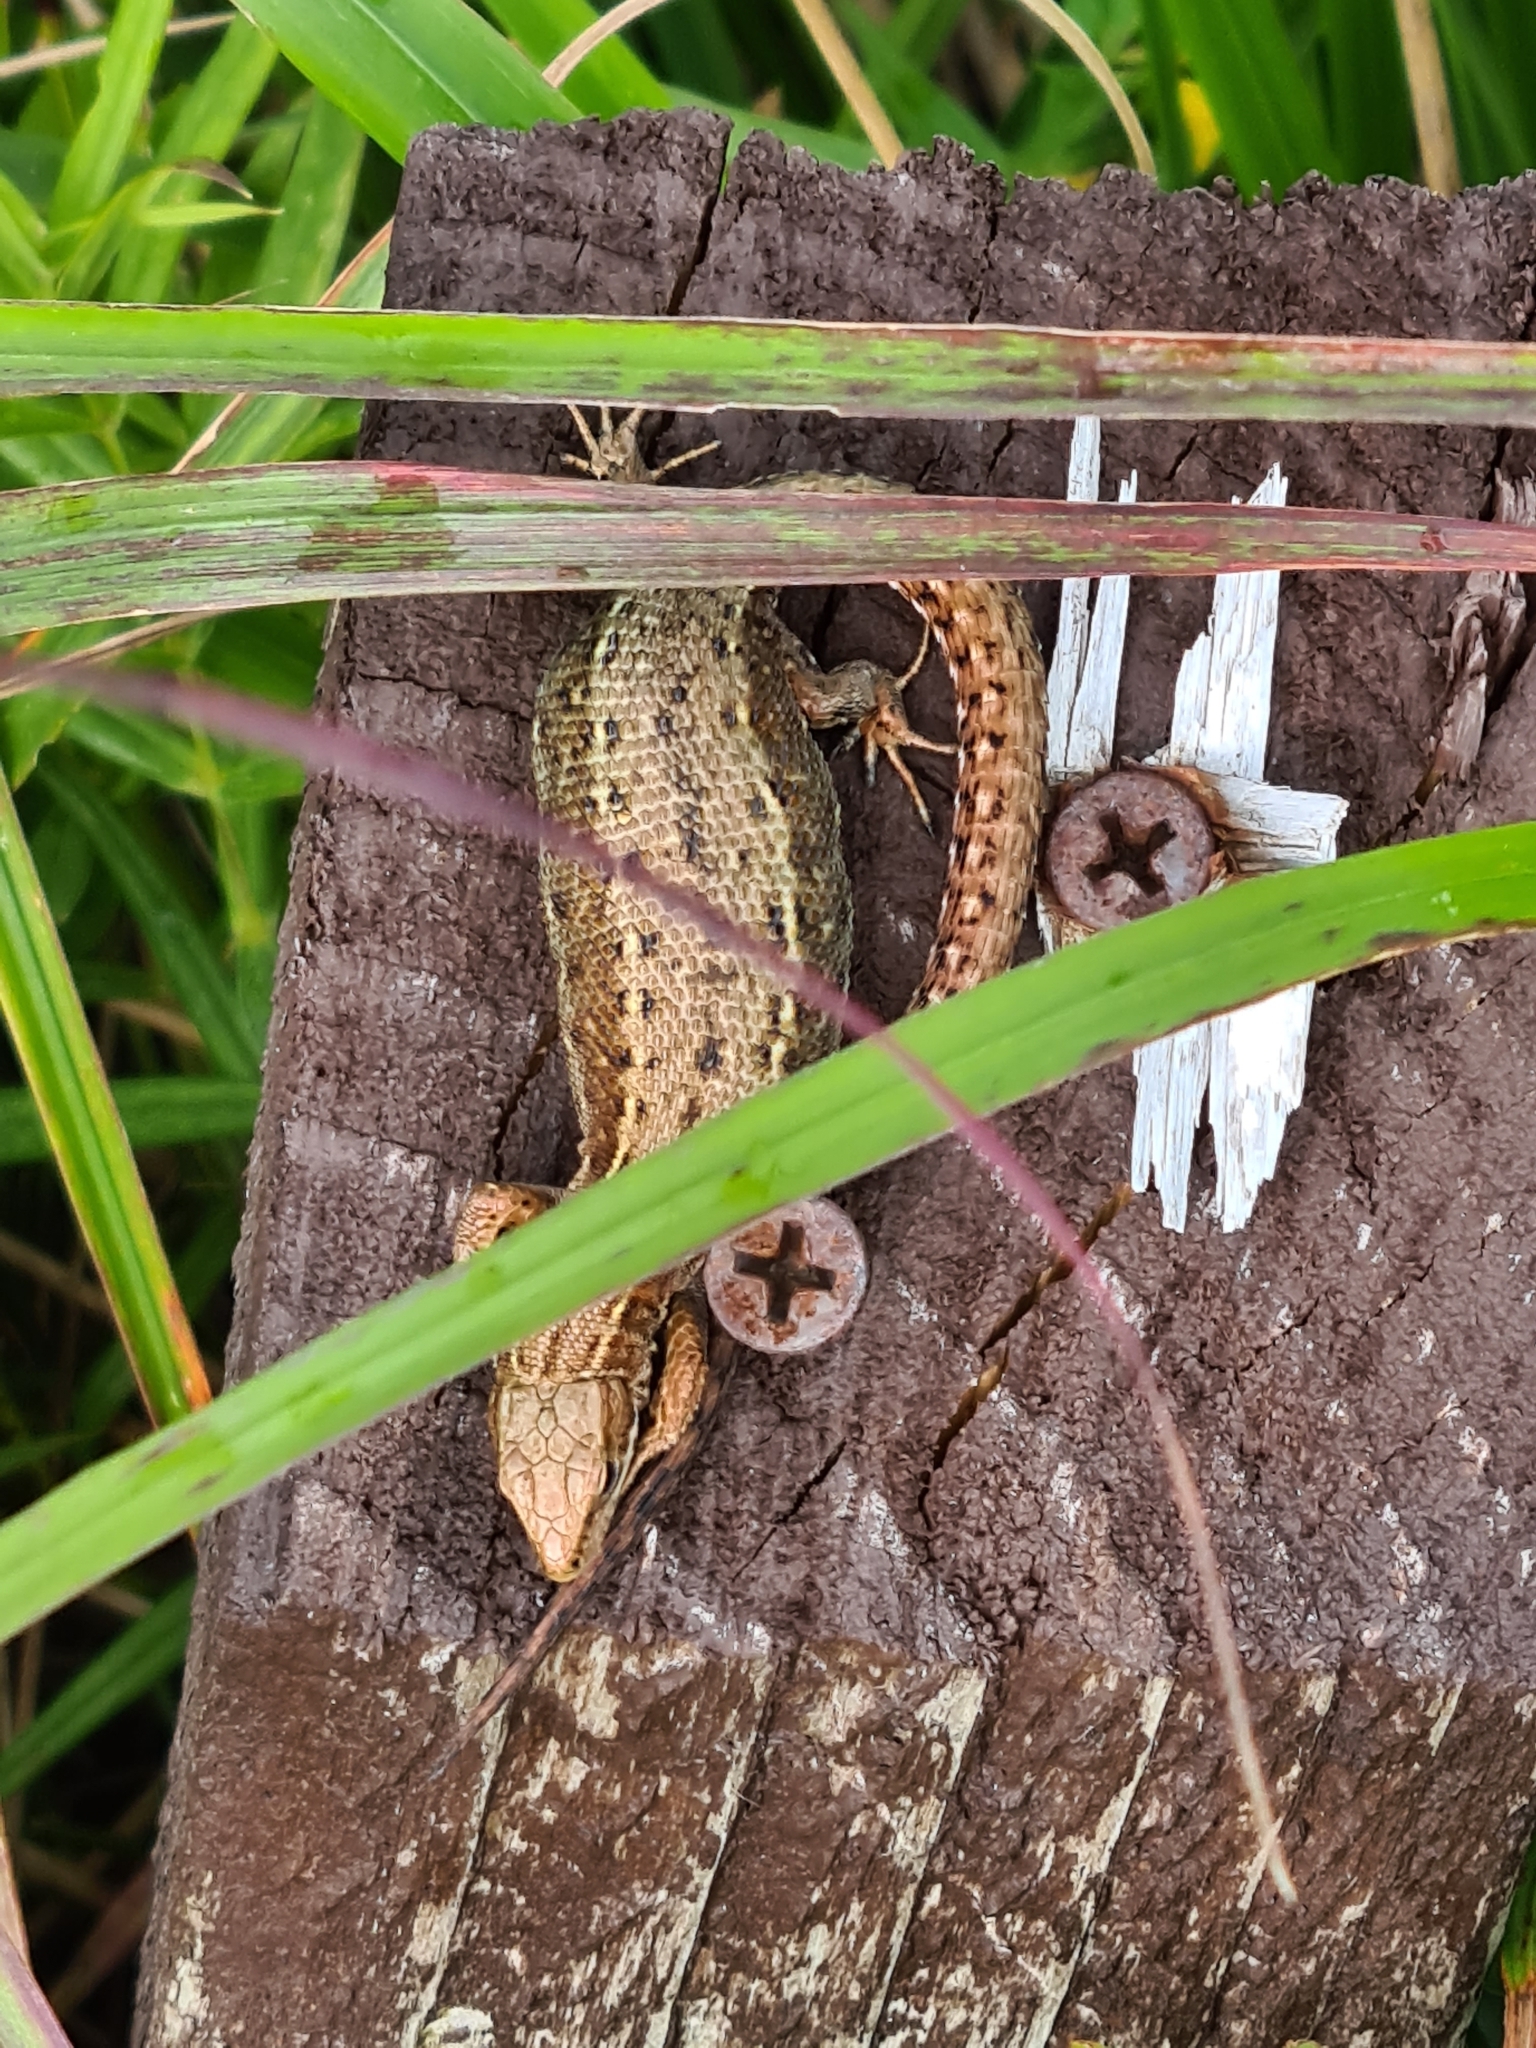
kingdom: Animalia
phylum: Chordata
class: Squamata
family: Lacertidae
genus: Zootoca
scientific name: Zootoca vivipara
